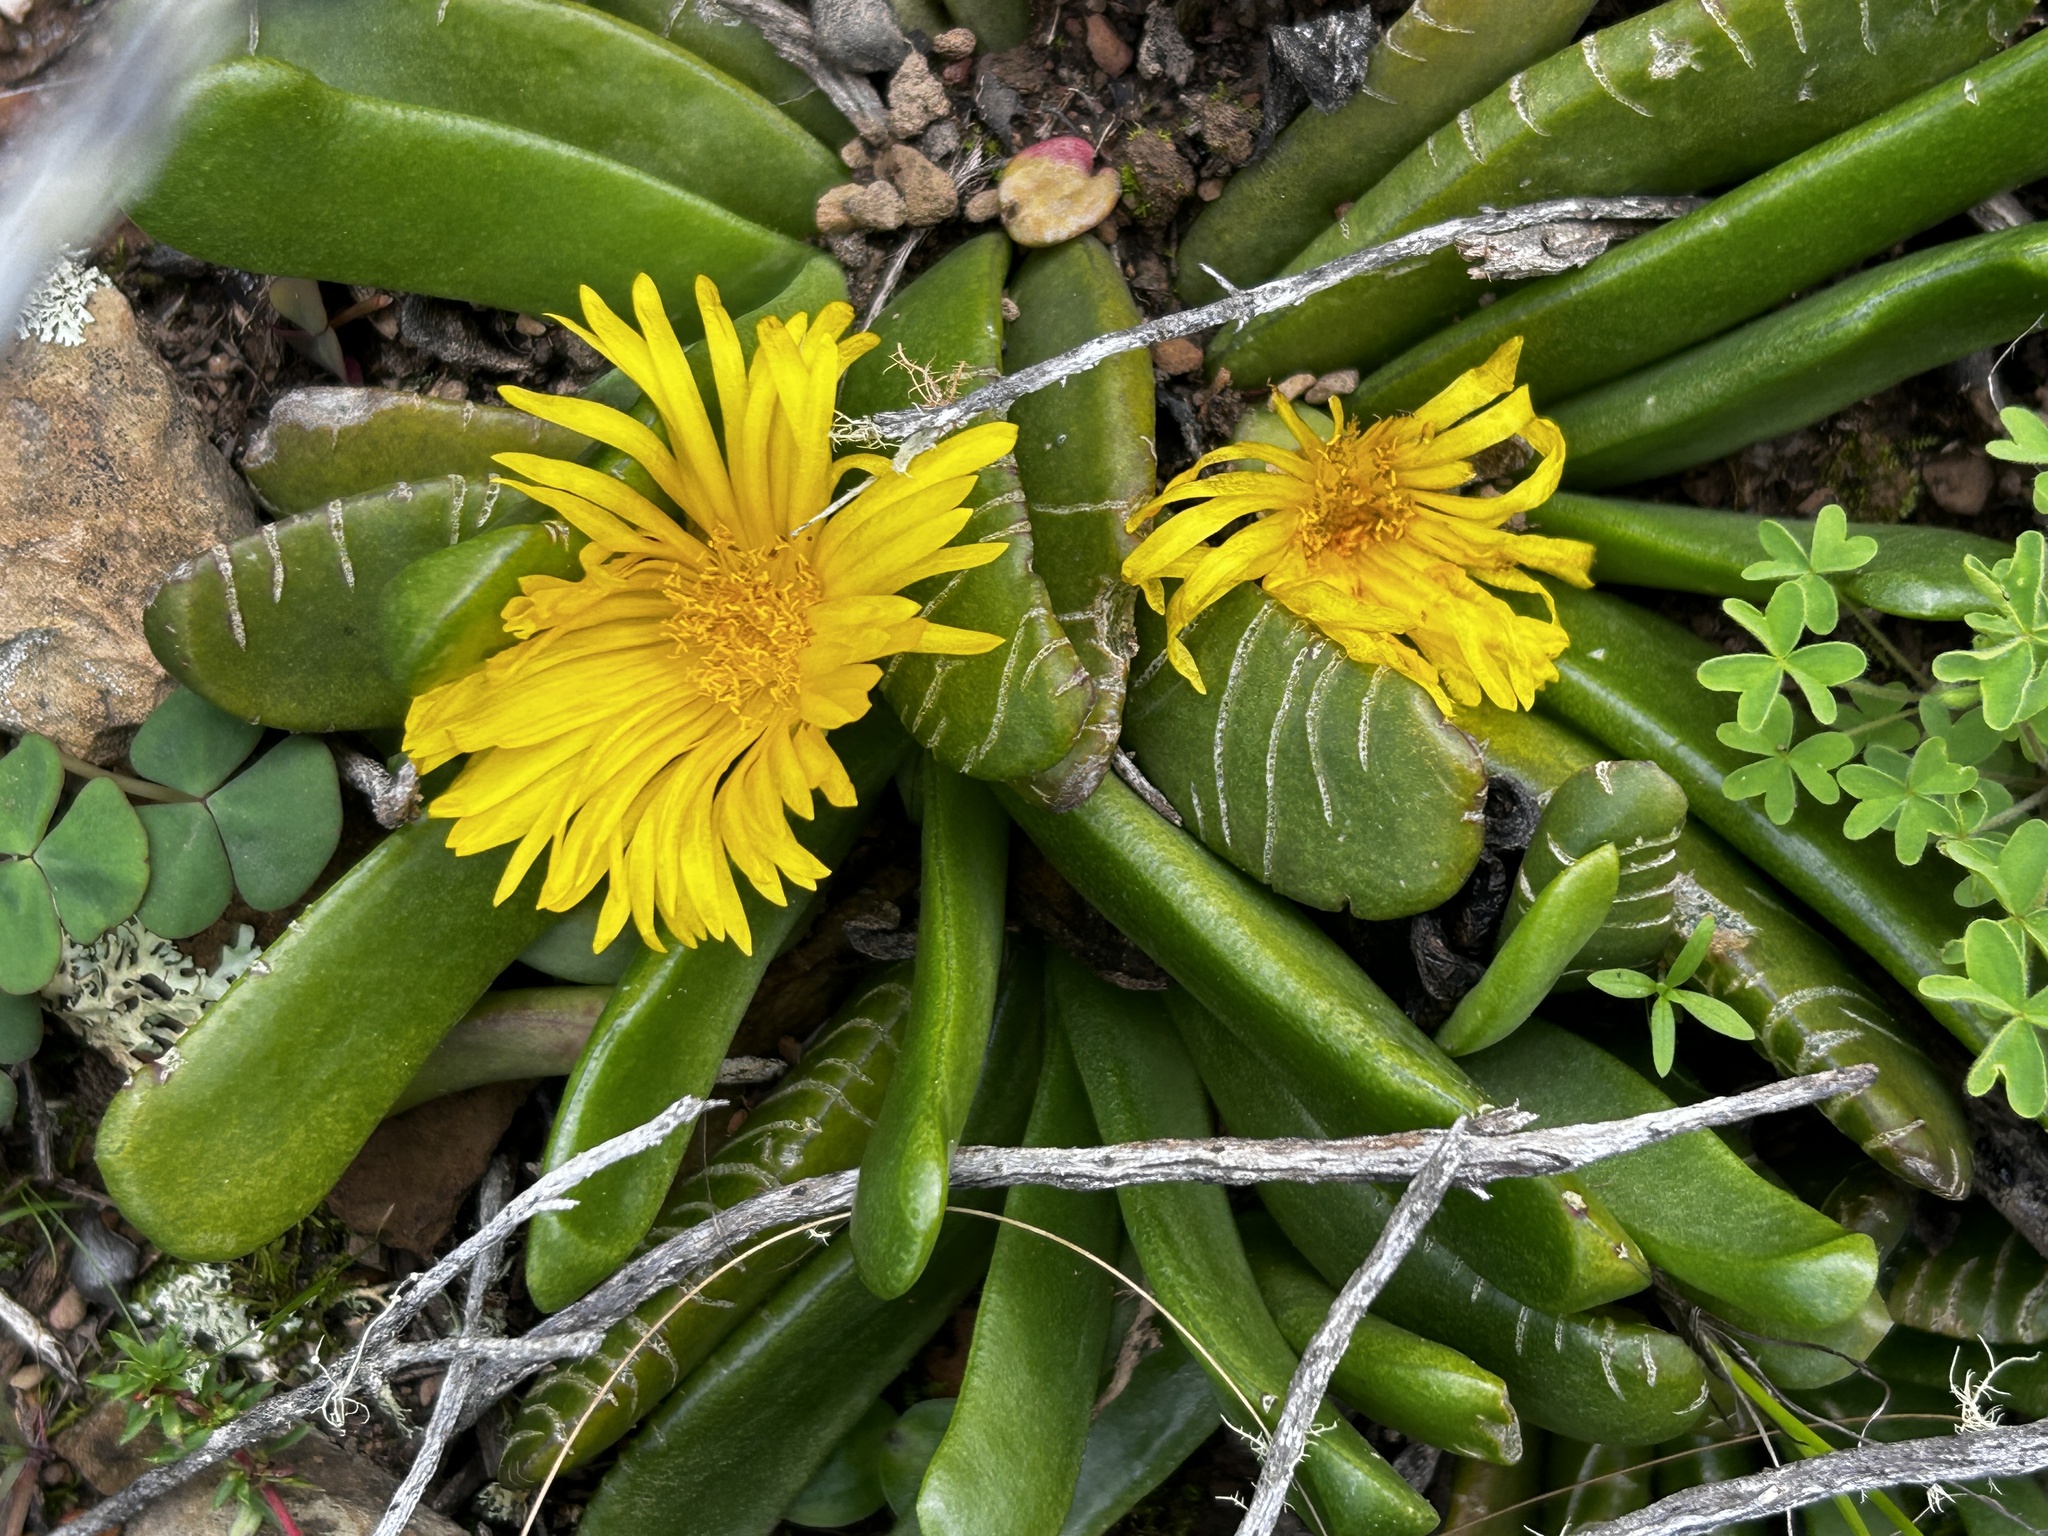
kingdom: Plantae
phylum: Tracheophyta
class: Magnoliopsida
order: Caryophyllales
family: Aizoaceae
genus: Glottiphyllum
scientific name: Glottiphyllum depressum
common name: Fig-marigold
